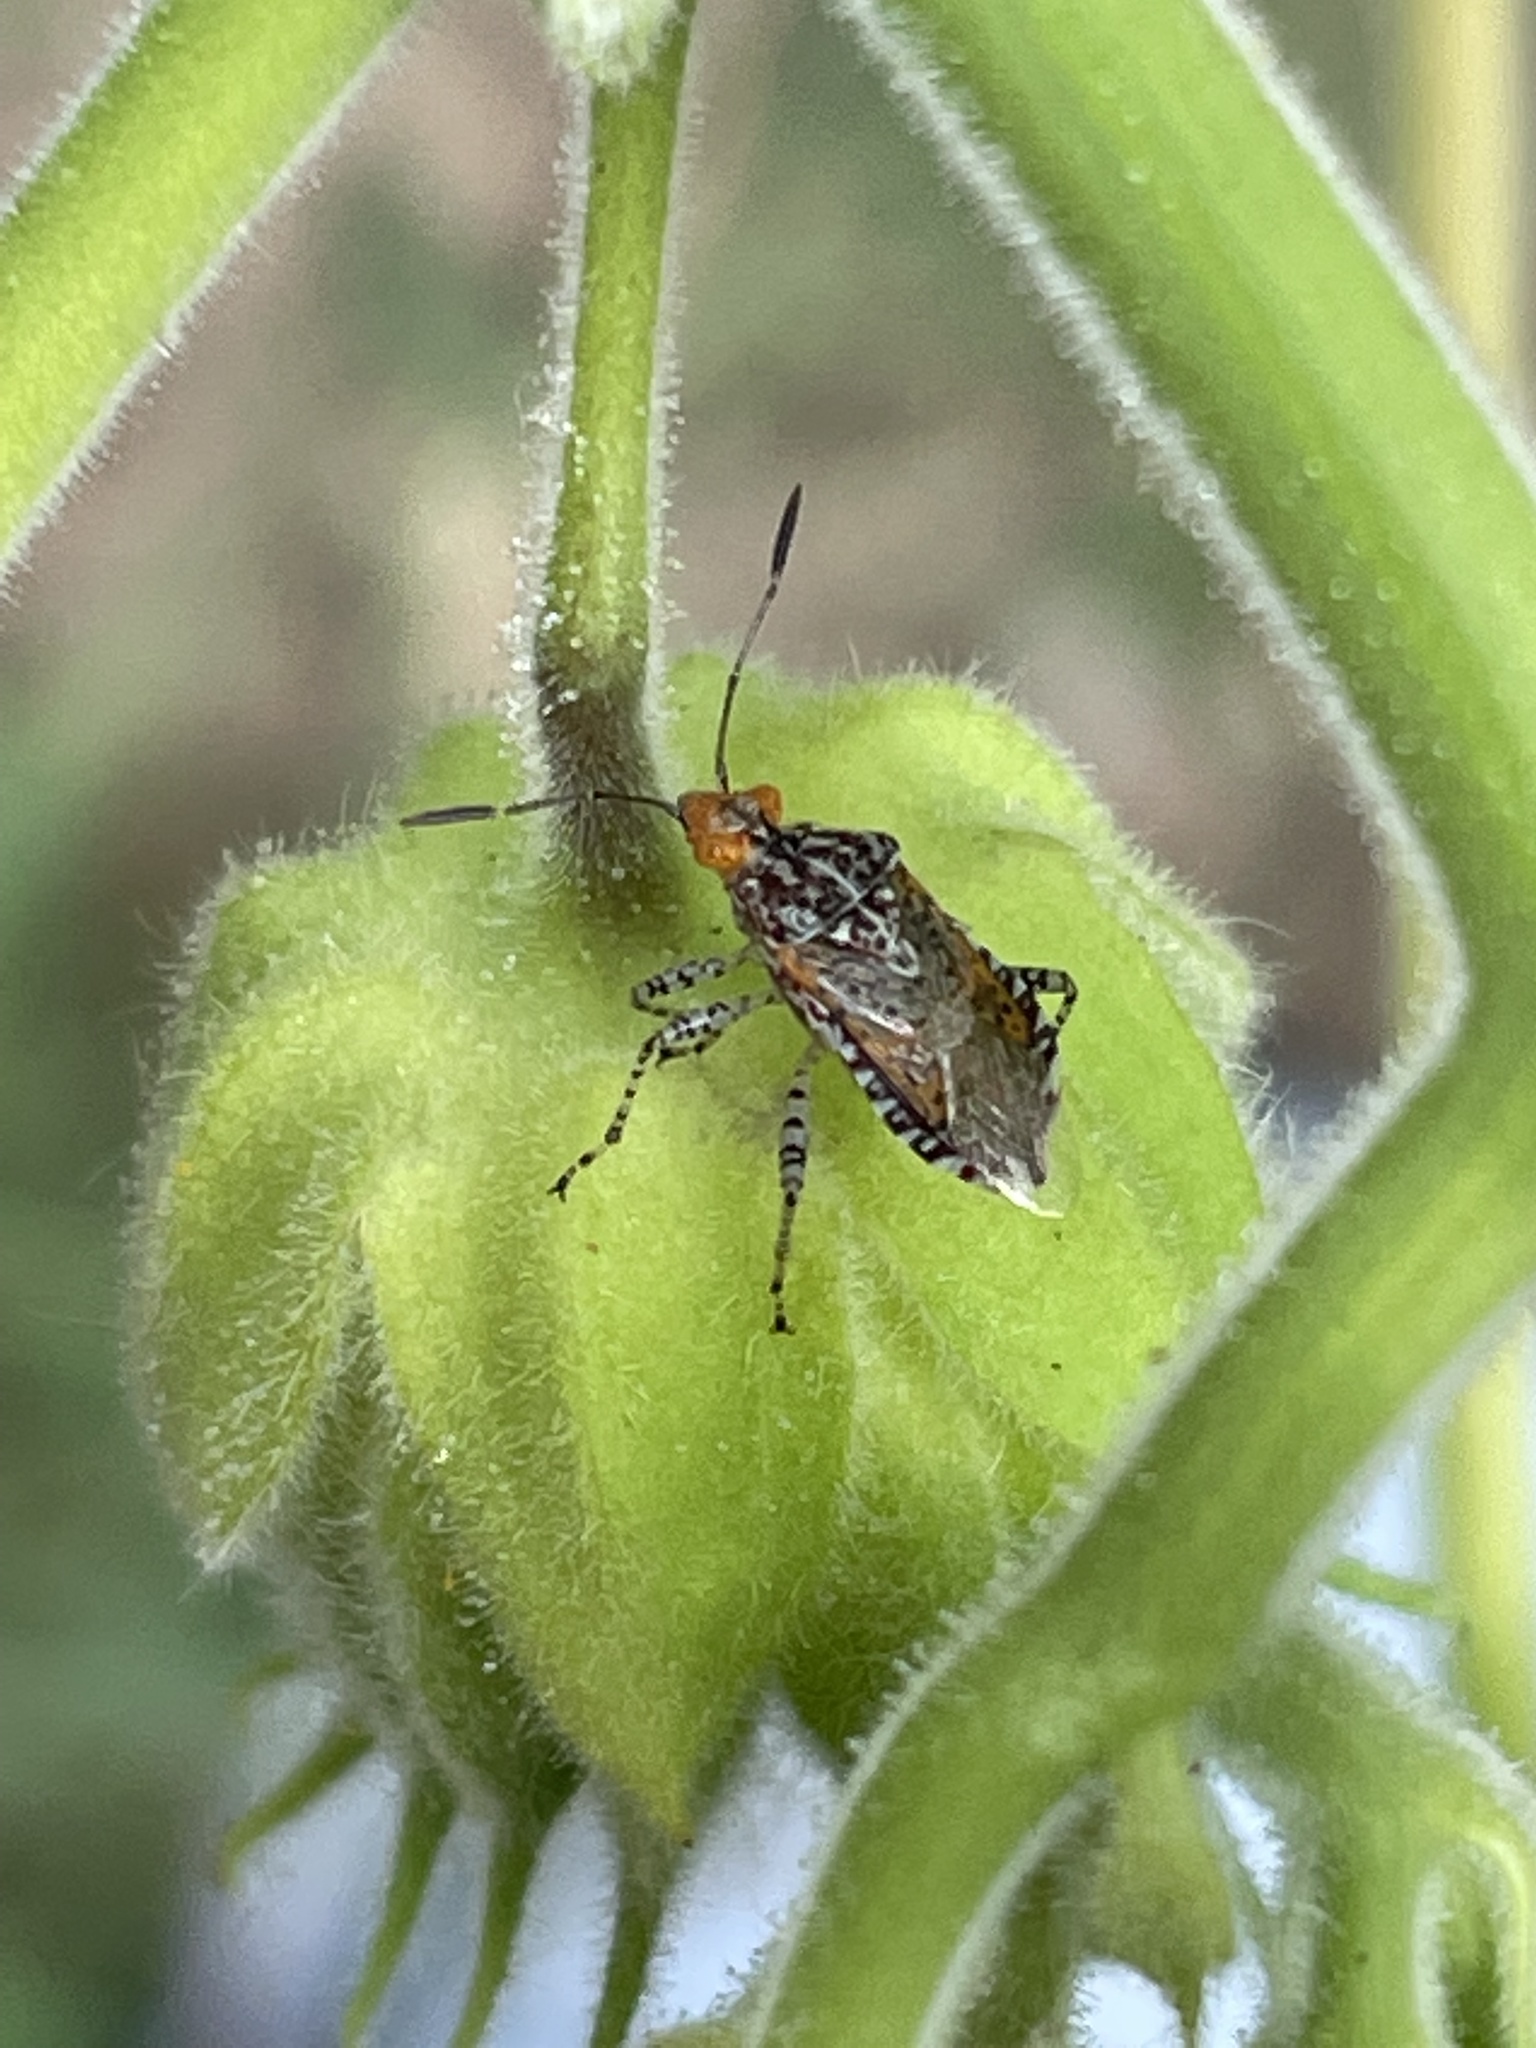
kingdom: Animalia
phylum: Arthropoda
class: Insecta
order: Hemiptera
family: Rhopalidae
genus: Niesthrea
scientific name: Niesthrea louisianica
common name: Scentless plant bug
